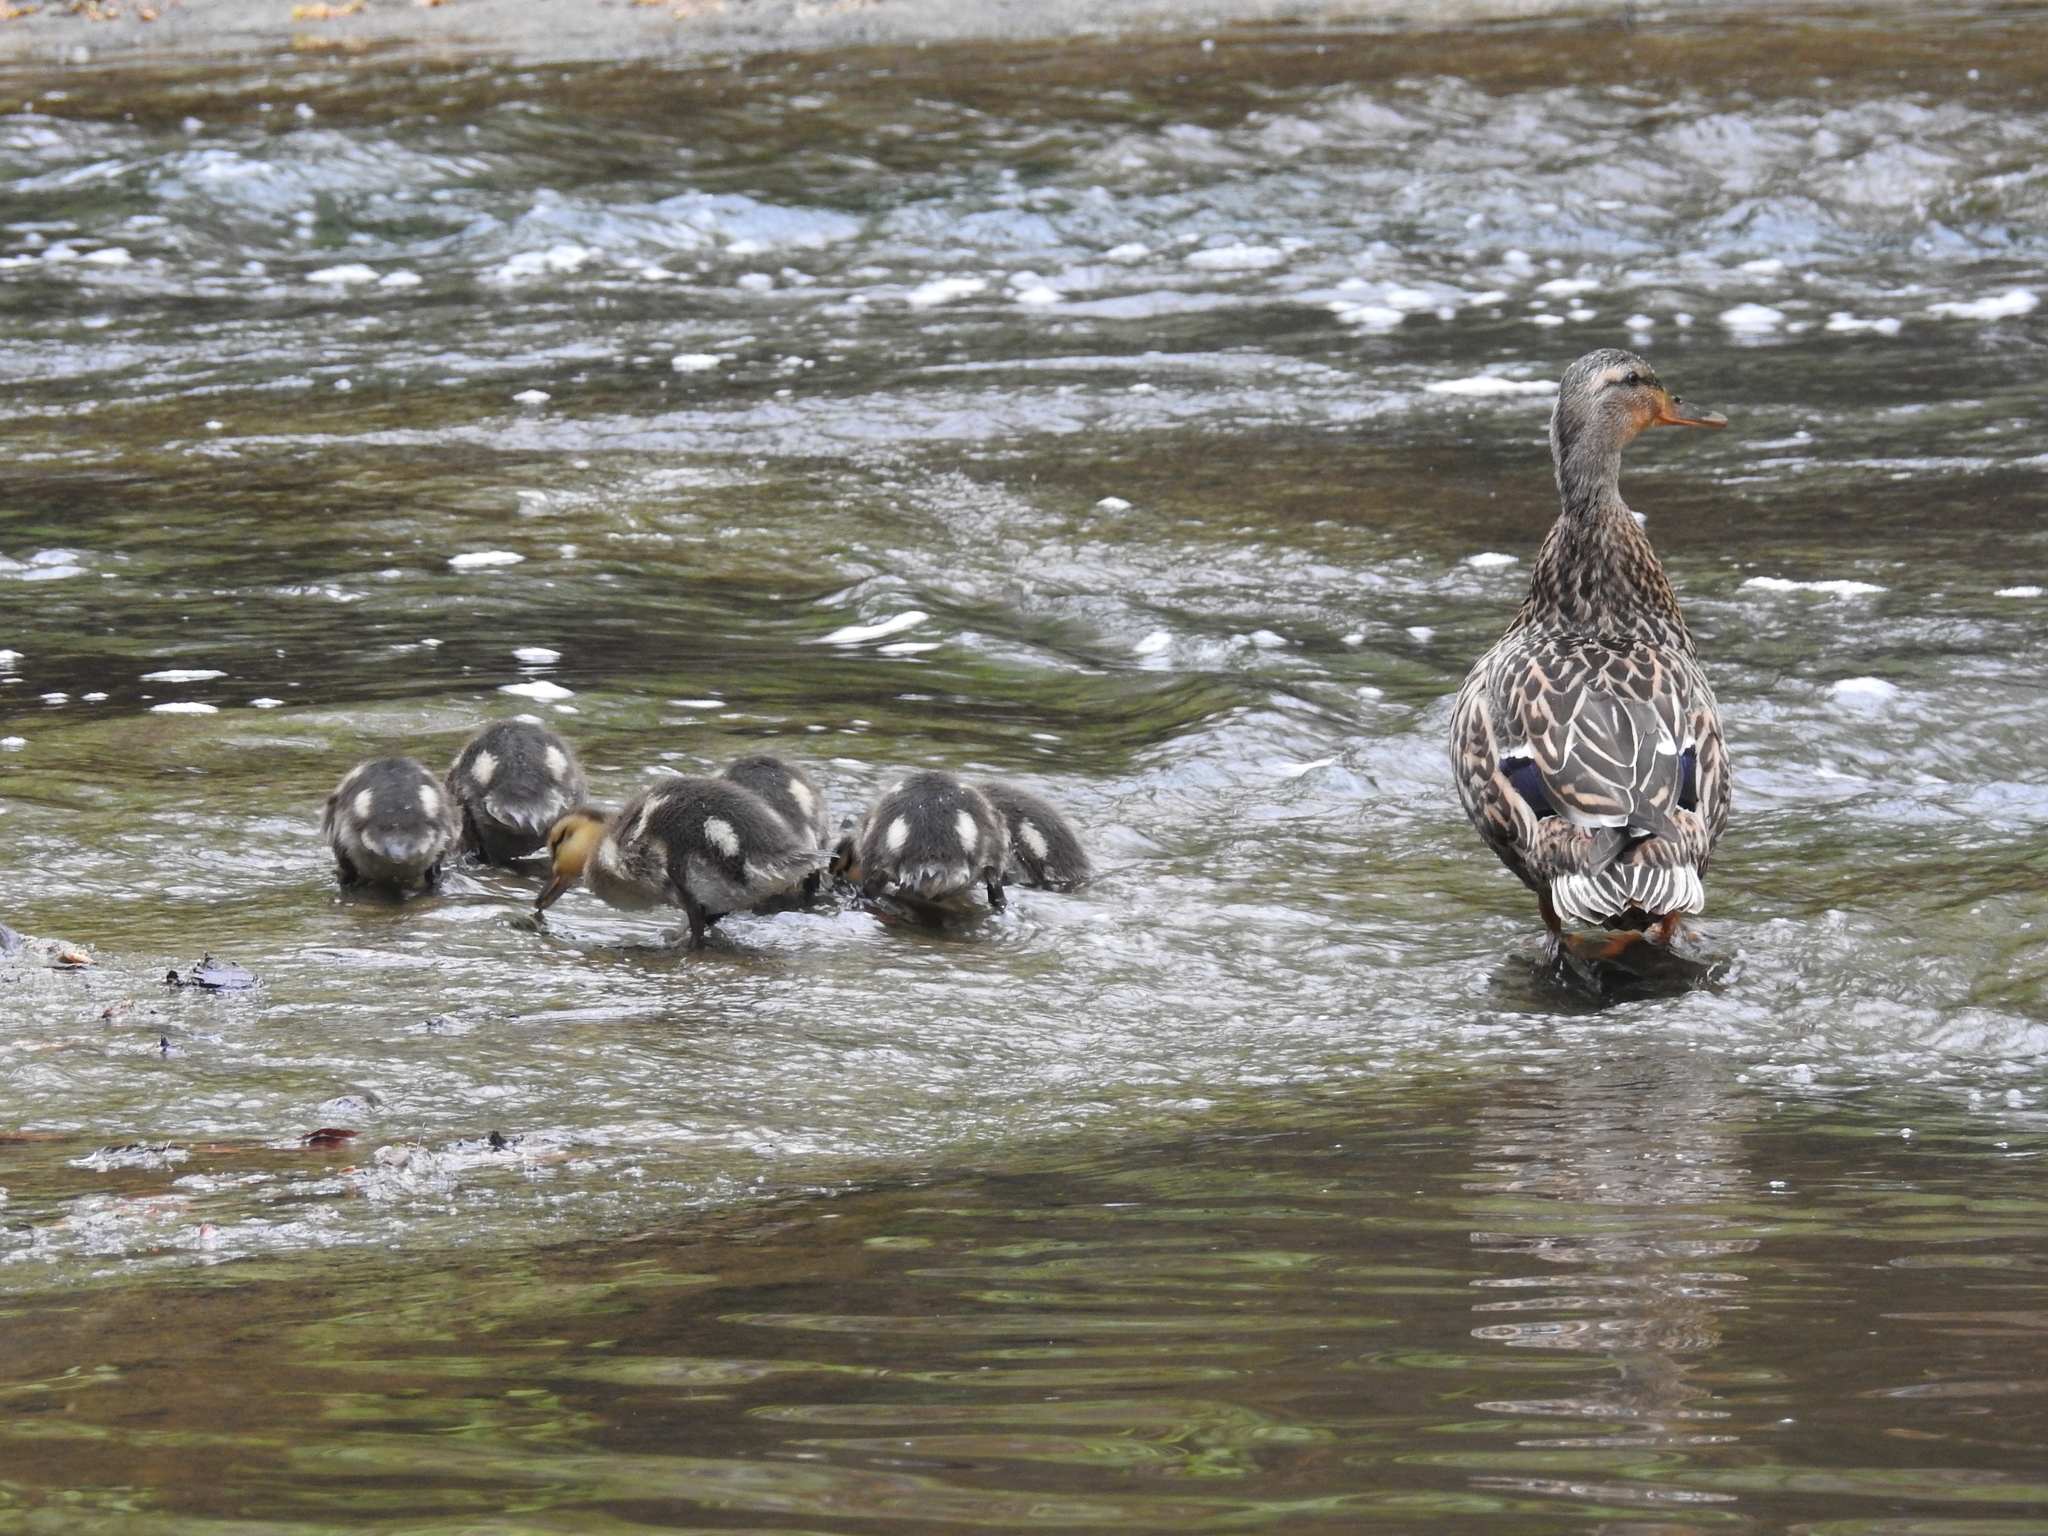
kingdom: Animalia
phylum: Chordata
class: Aves
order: Anseriformes
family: Anatidae
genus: Anas
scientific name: Anas platyrhynchos
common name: Mallard
